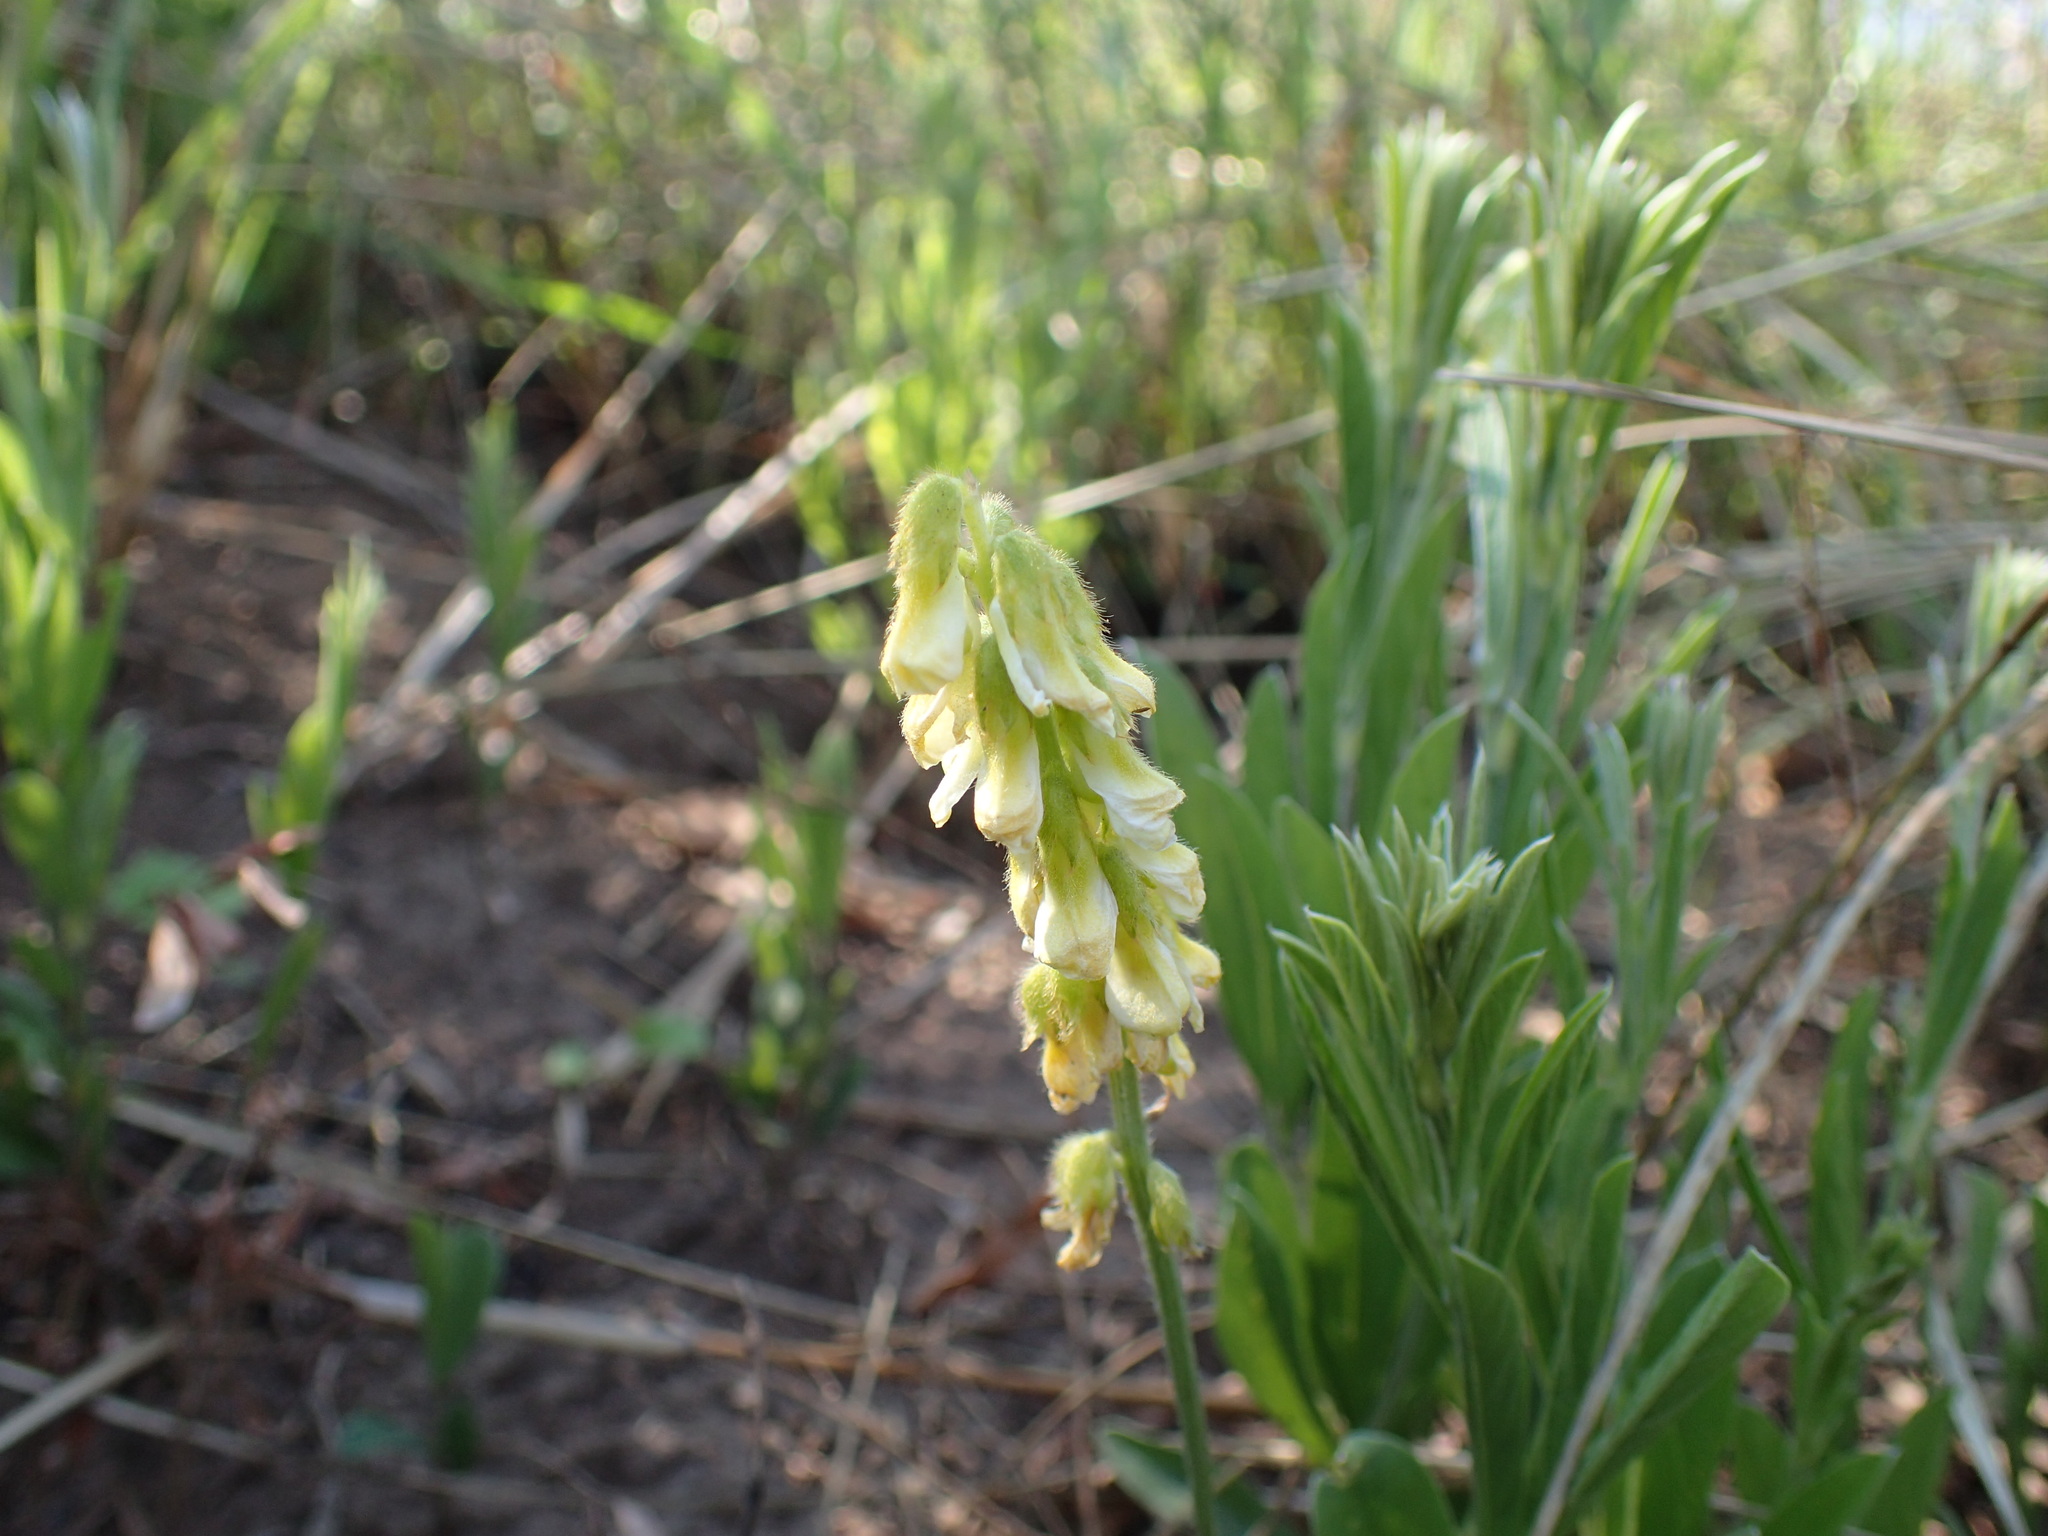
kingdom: Plantae
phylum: Tracheophyta
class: Magnoliopsida
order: Fabales
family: Fabaceae
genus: Eriosema
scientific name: Eriosema kraussianum
